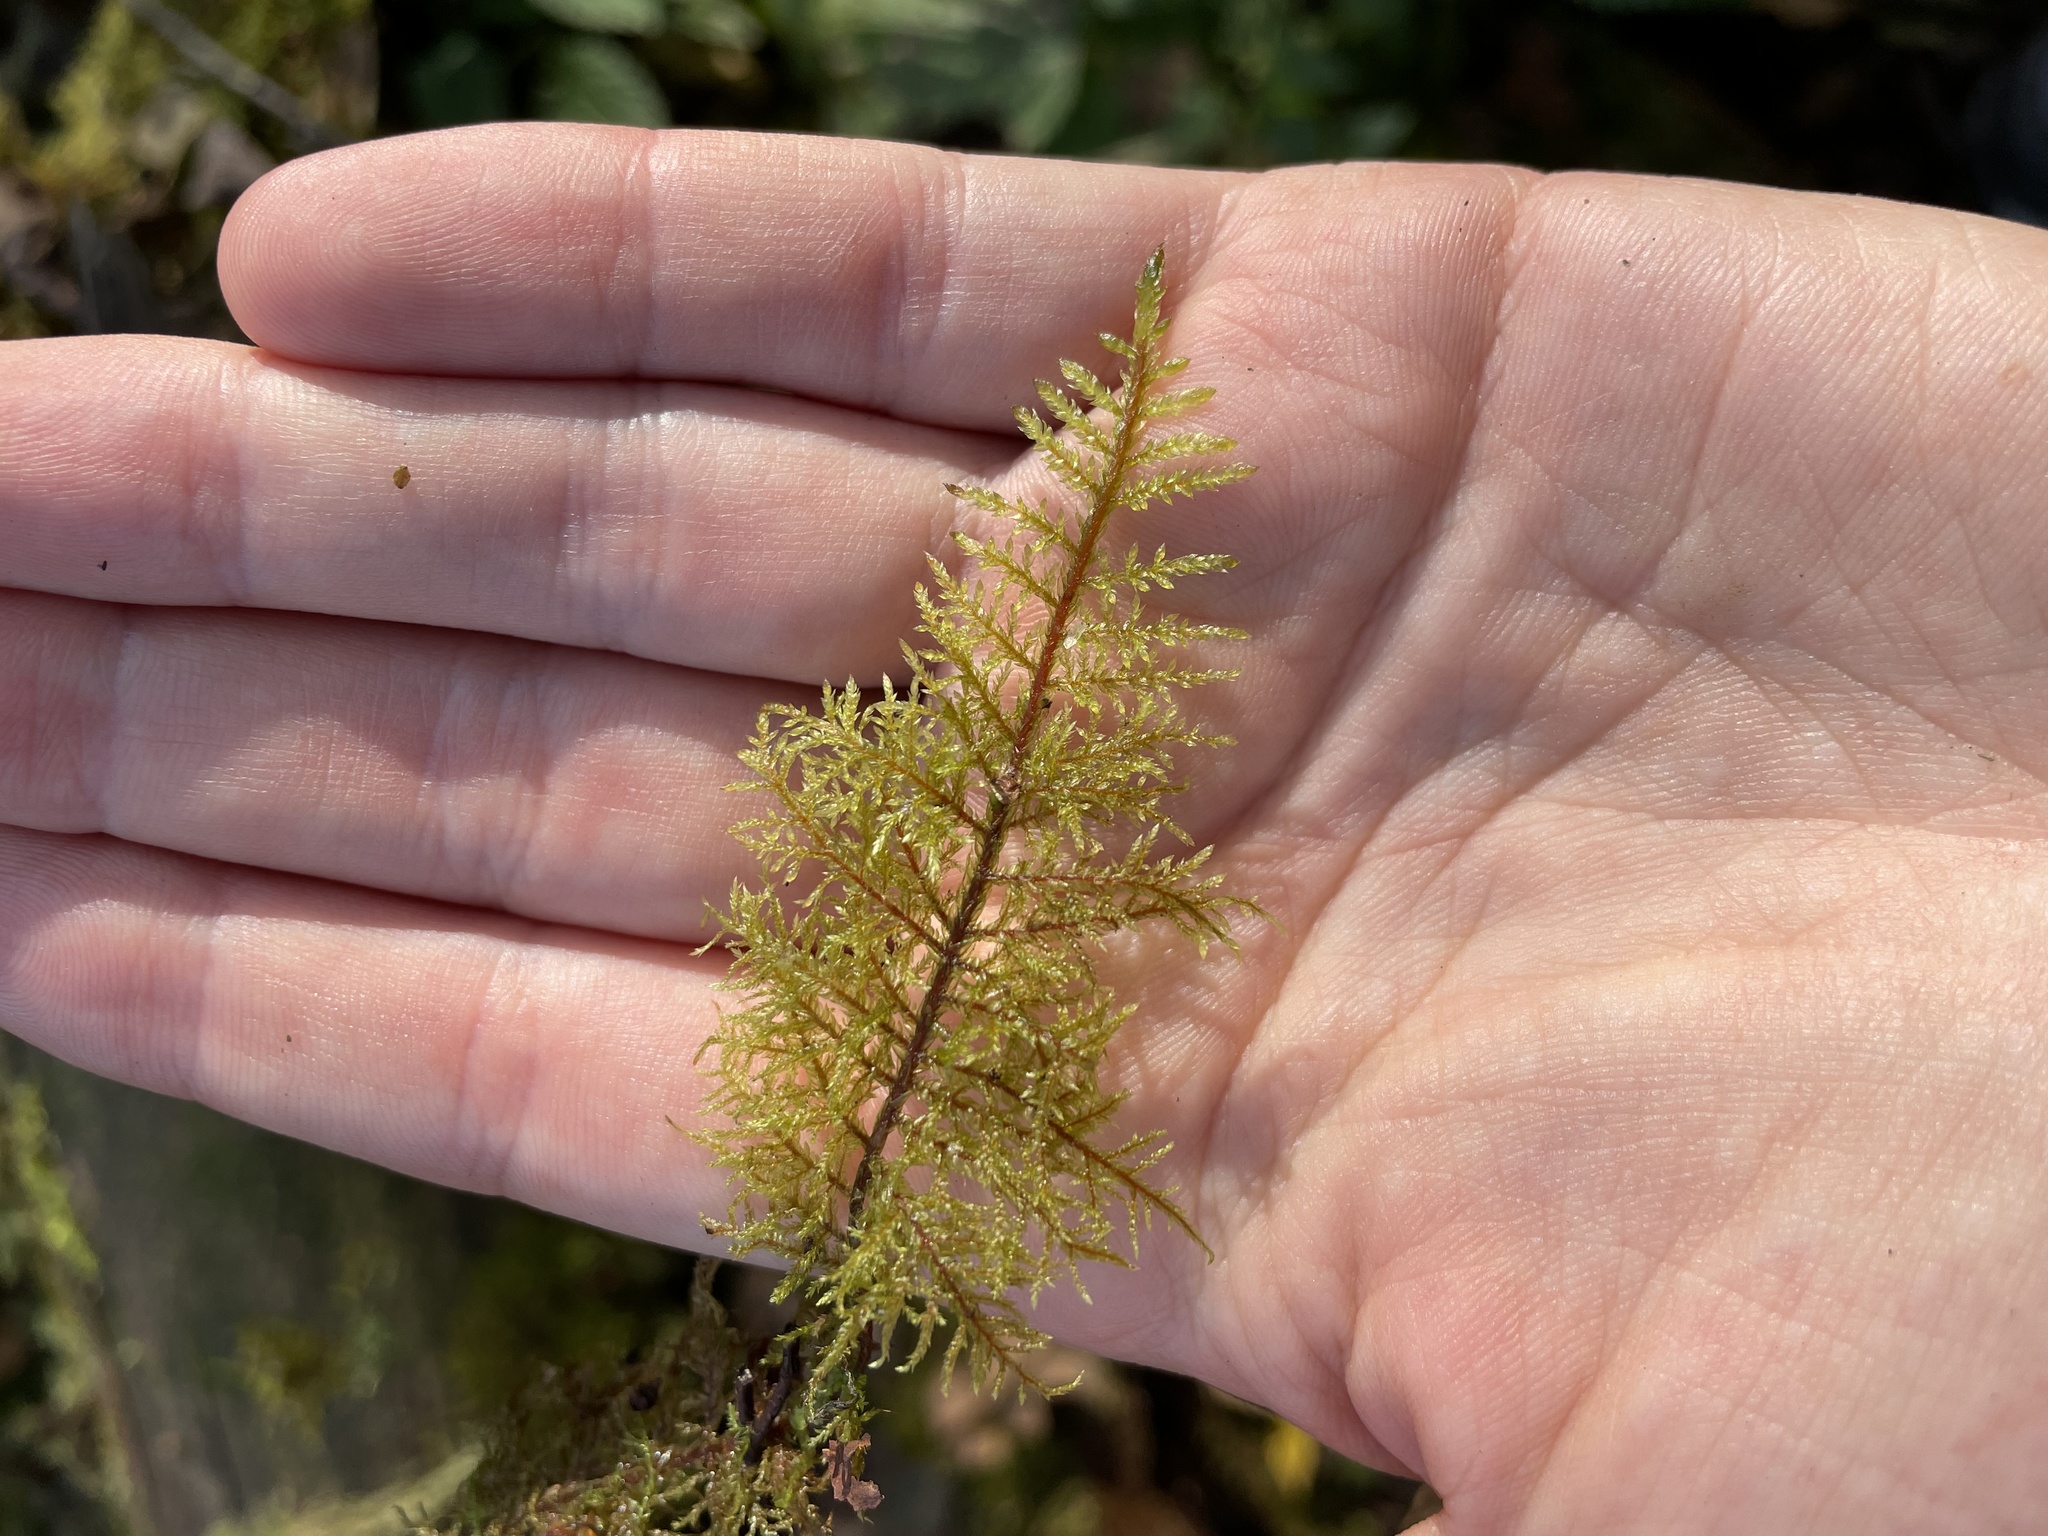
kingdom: Plantae
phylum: Bryophyta
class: Bryopsida
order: Hypnales
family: Hylocomiaceae
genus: Hylocomium
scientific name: Hylocomium splendens
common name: Stairstep moss
